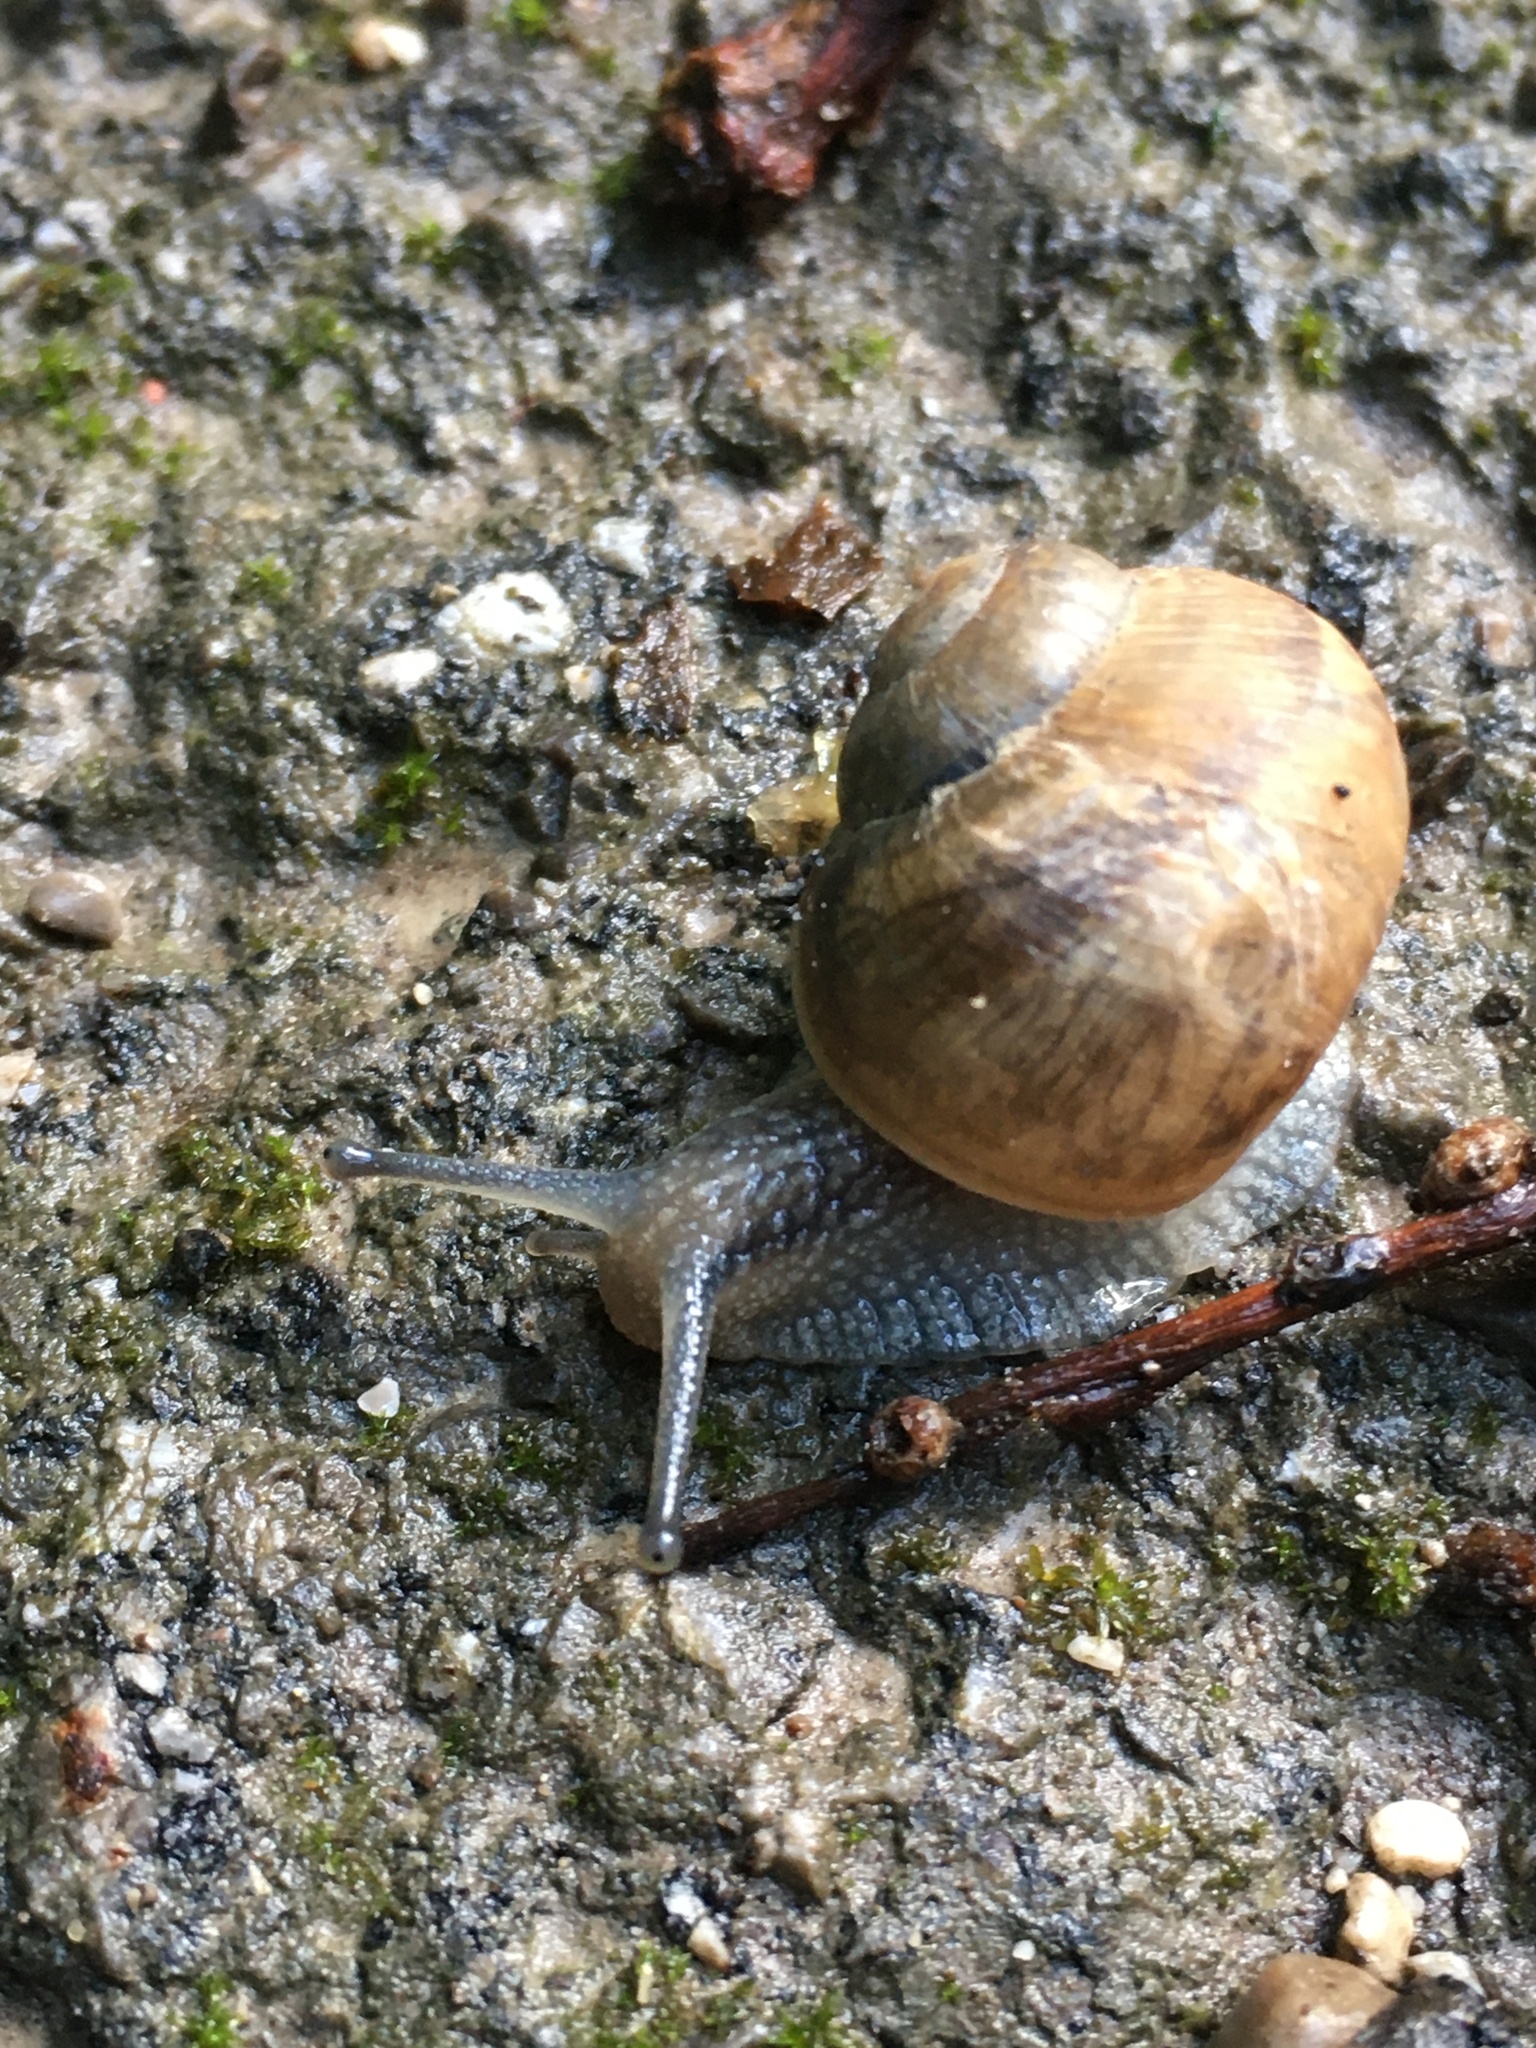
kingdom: Animalia
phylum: Mollusca
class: Gastropoda
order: Stylommatophora
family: Helicidae
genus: Helix
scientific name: Helix pomatia
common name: Roman snail
